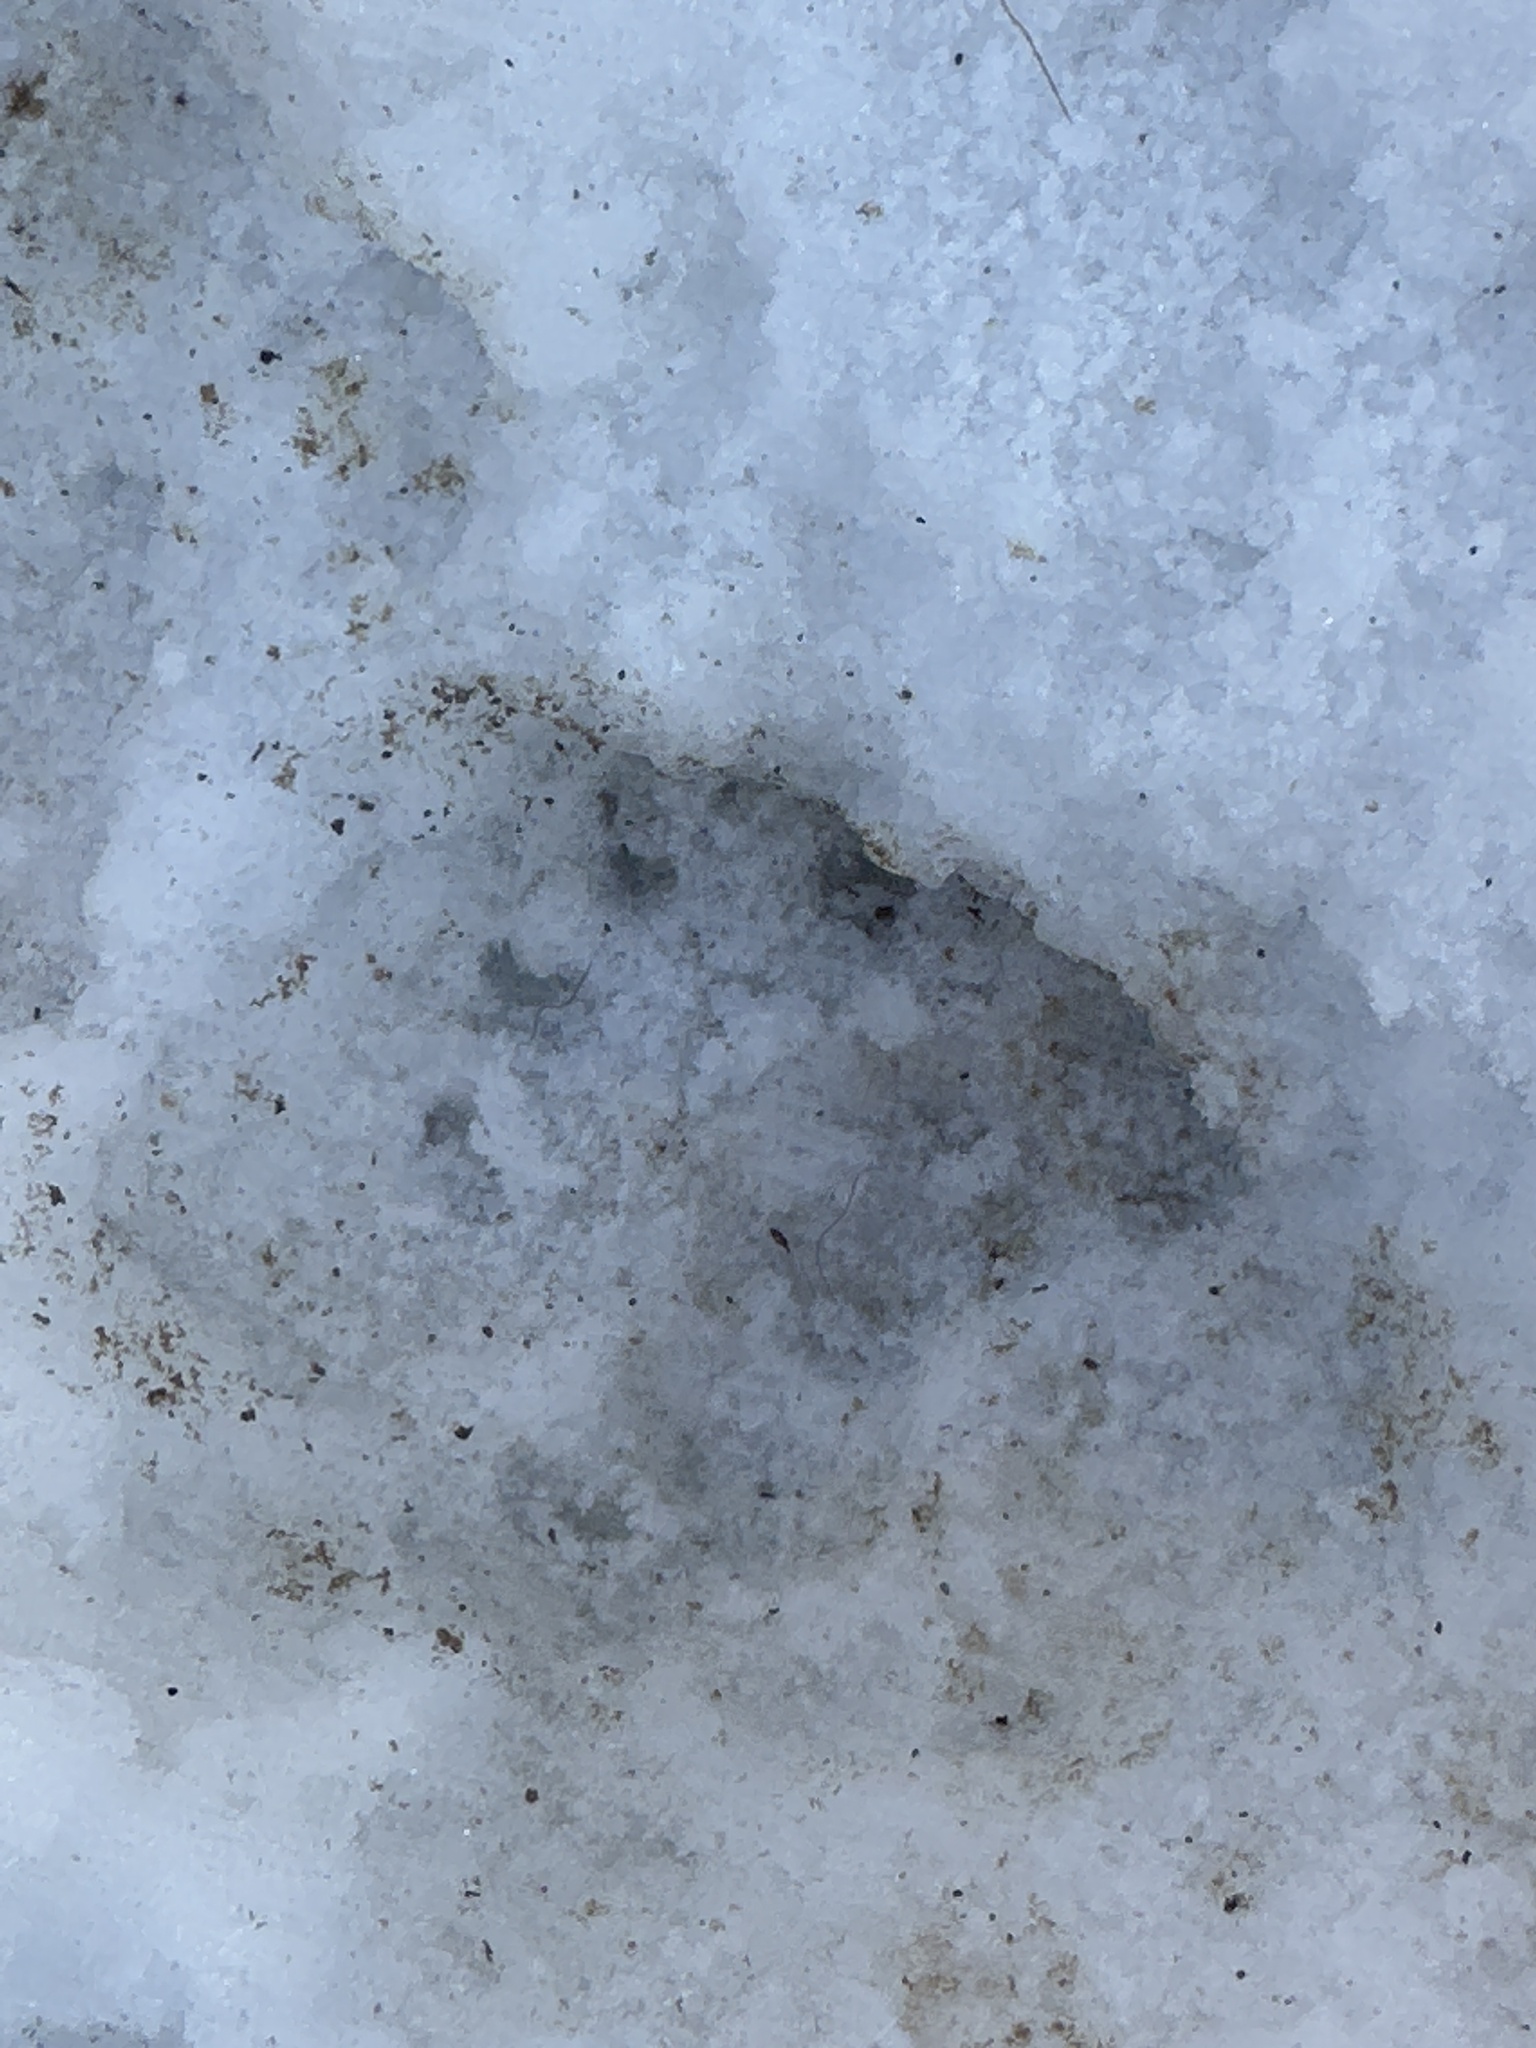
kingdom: Animalia
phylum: Chordata
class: Mammalia
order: Carnivora
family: Mustelidae
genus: Meles
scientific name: Meles meles
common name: Eurasian badger
